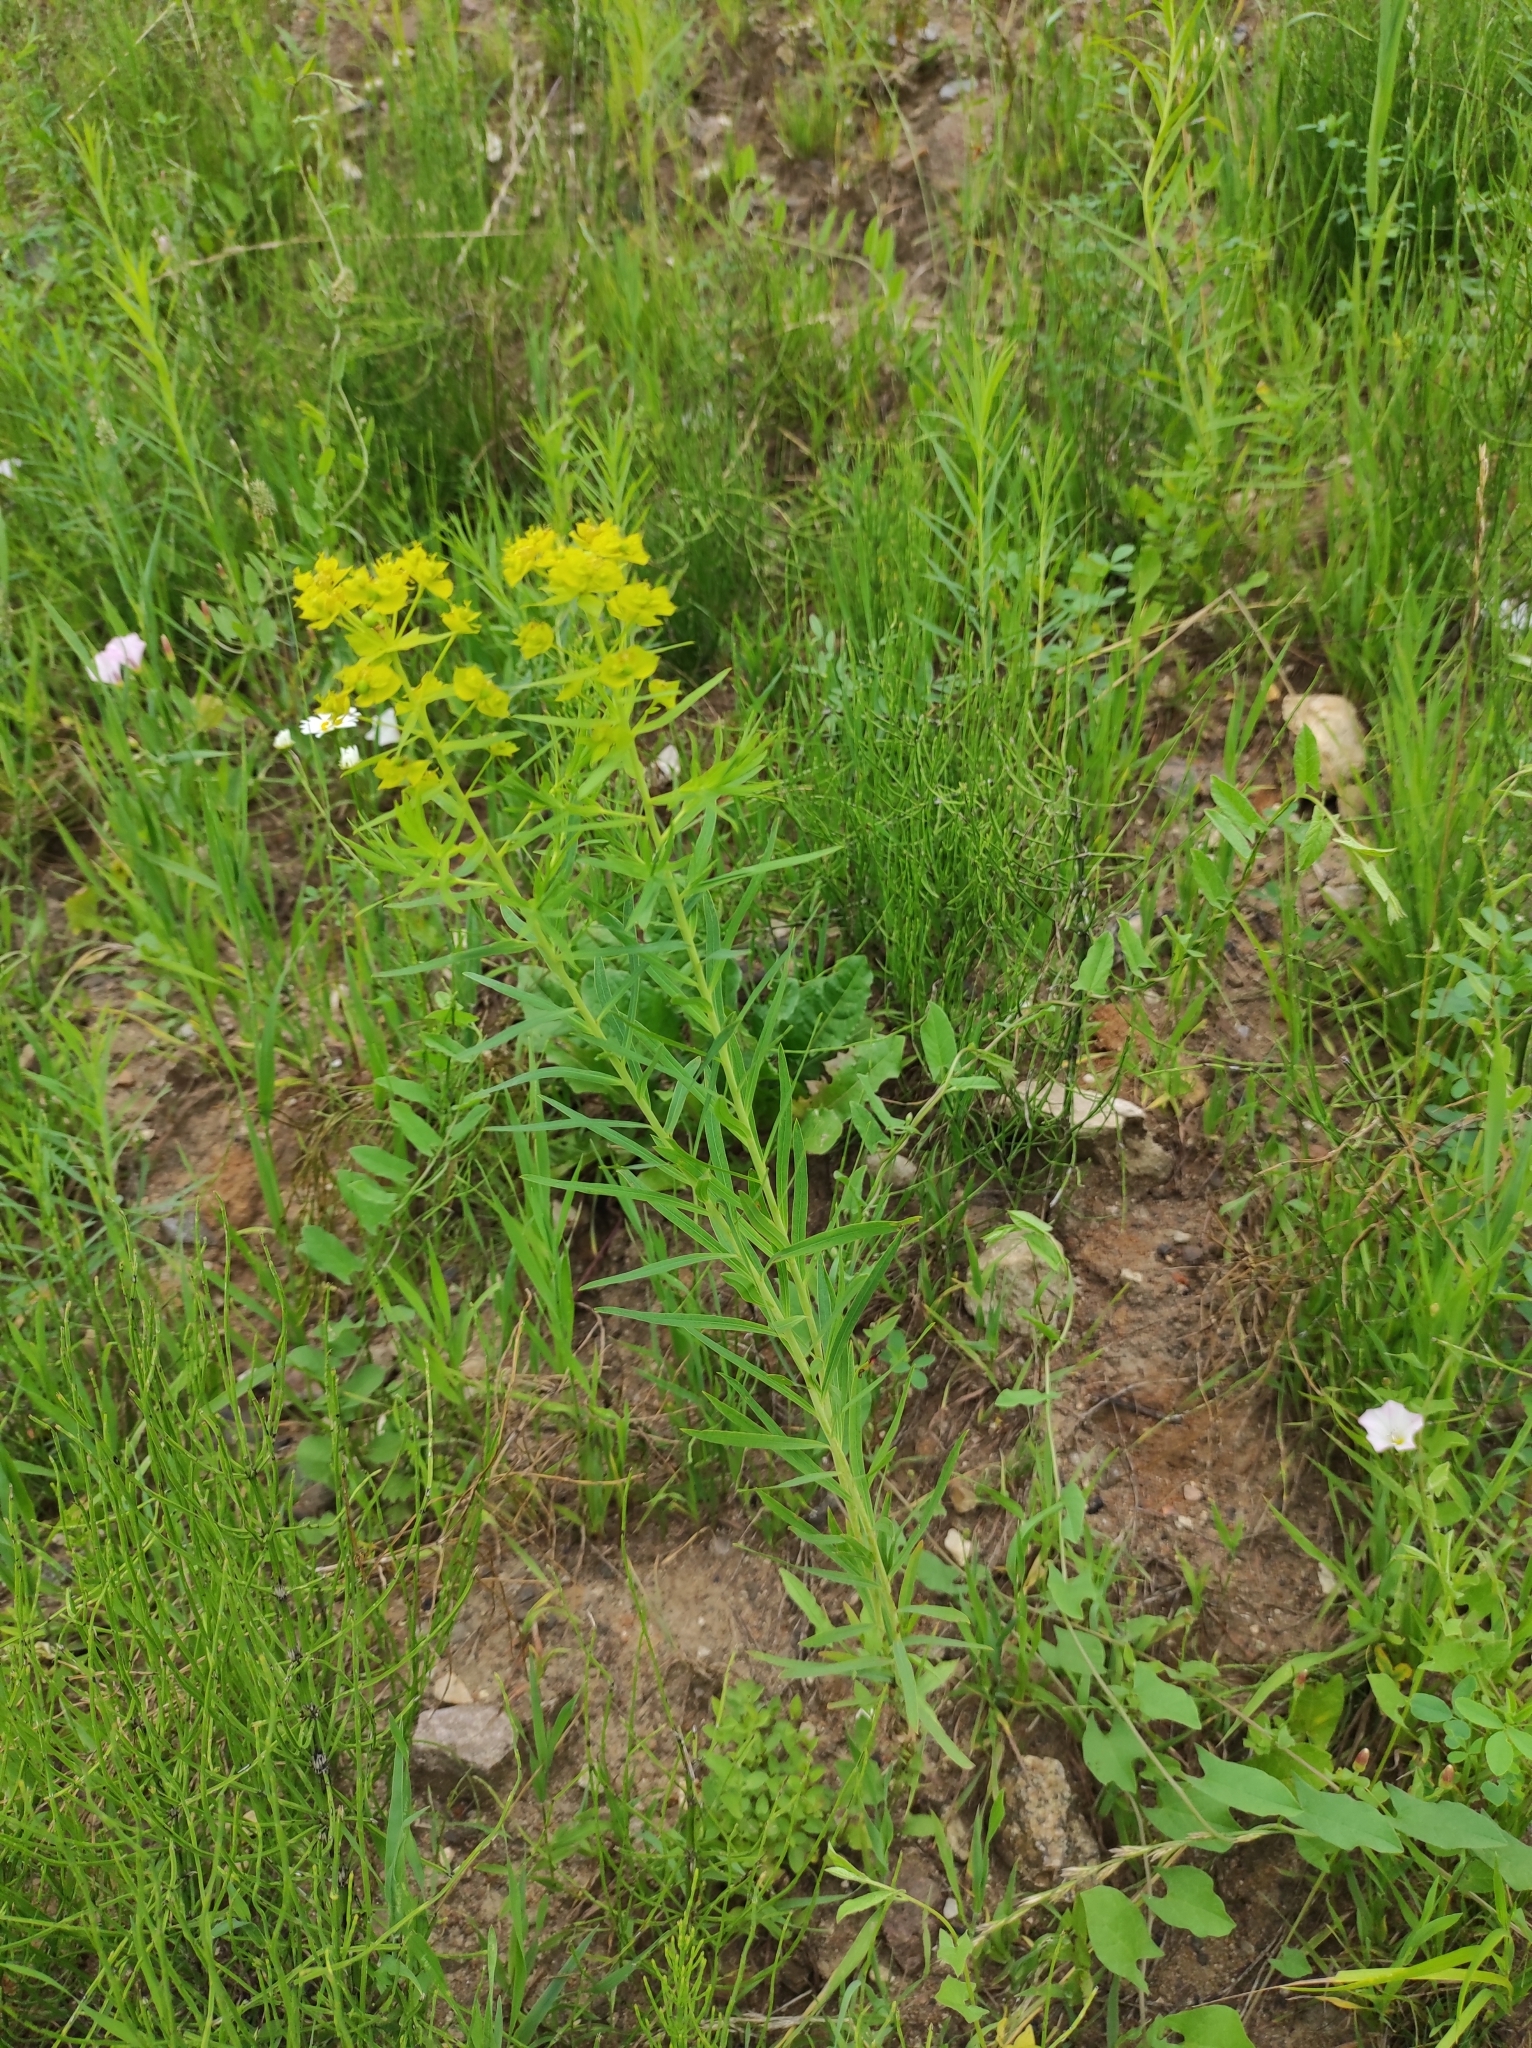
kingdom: Plantae
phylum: Tracheophyta
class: Magnoliopsida
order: Malpighiales
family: Euphorbiaceae
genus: Euphorbia
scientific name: Euphorbia virgata
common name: Leafy spurge
